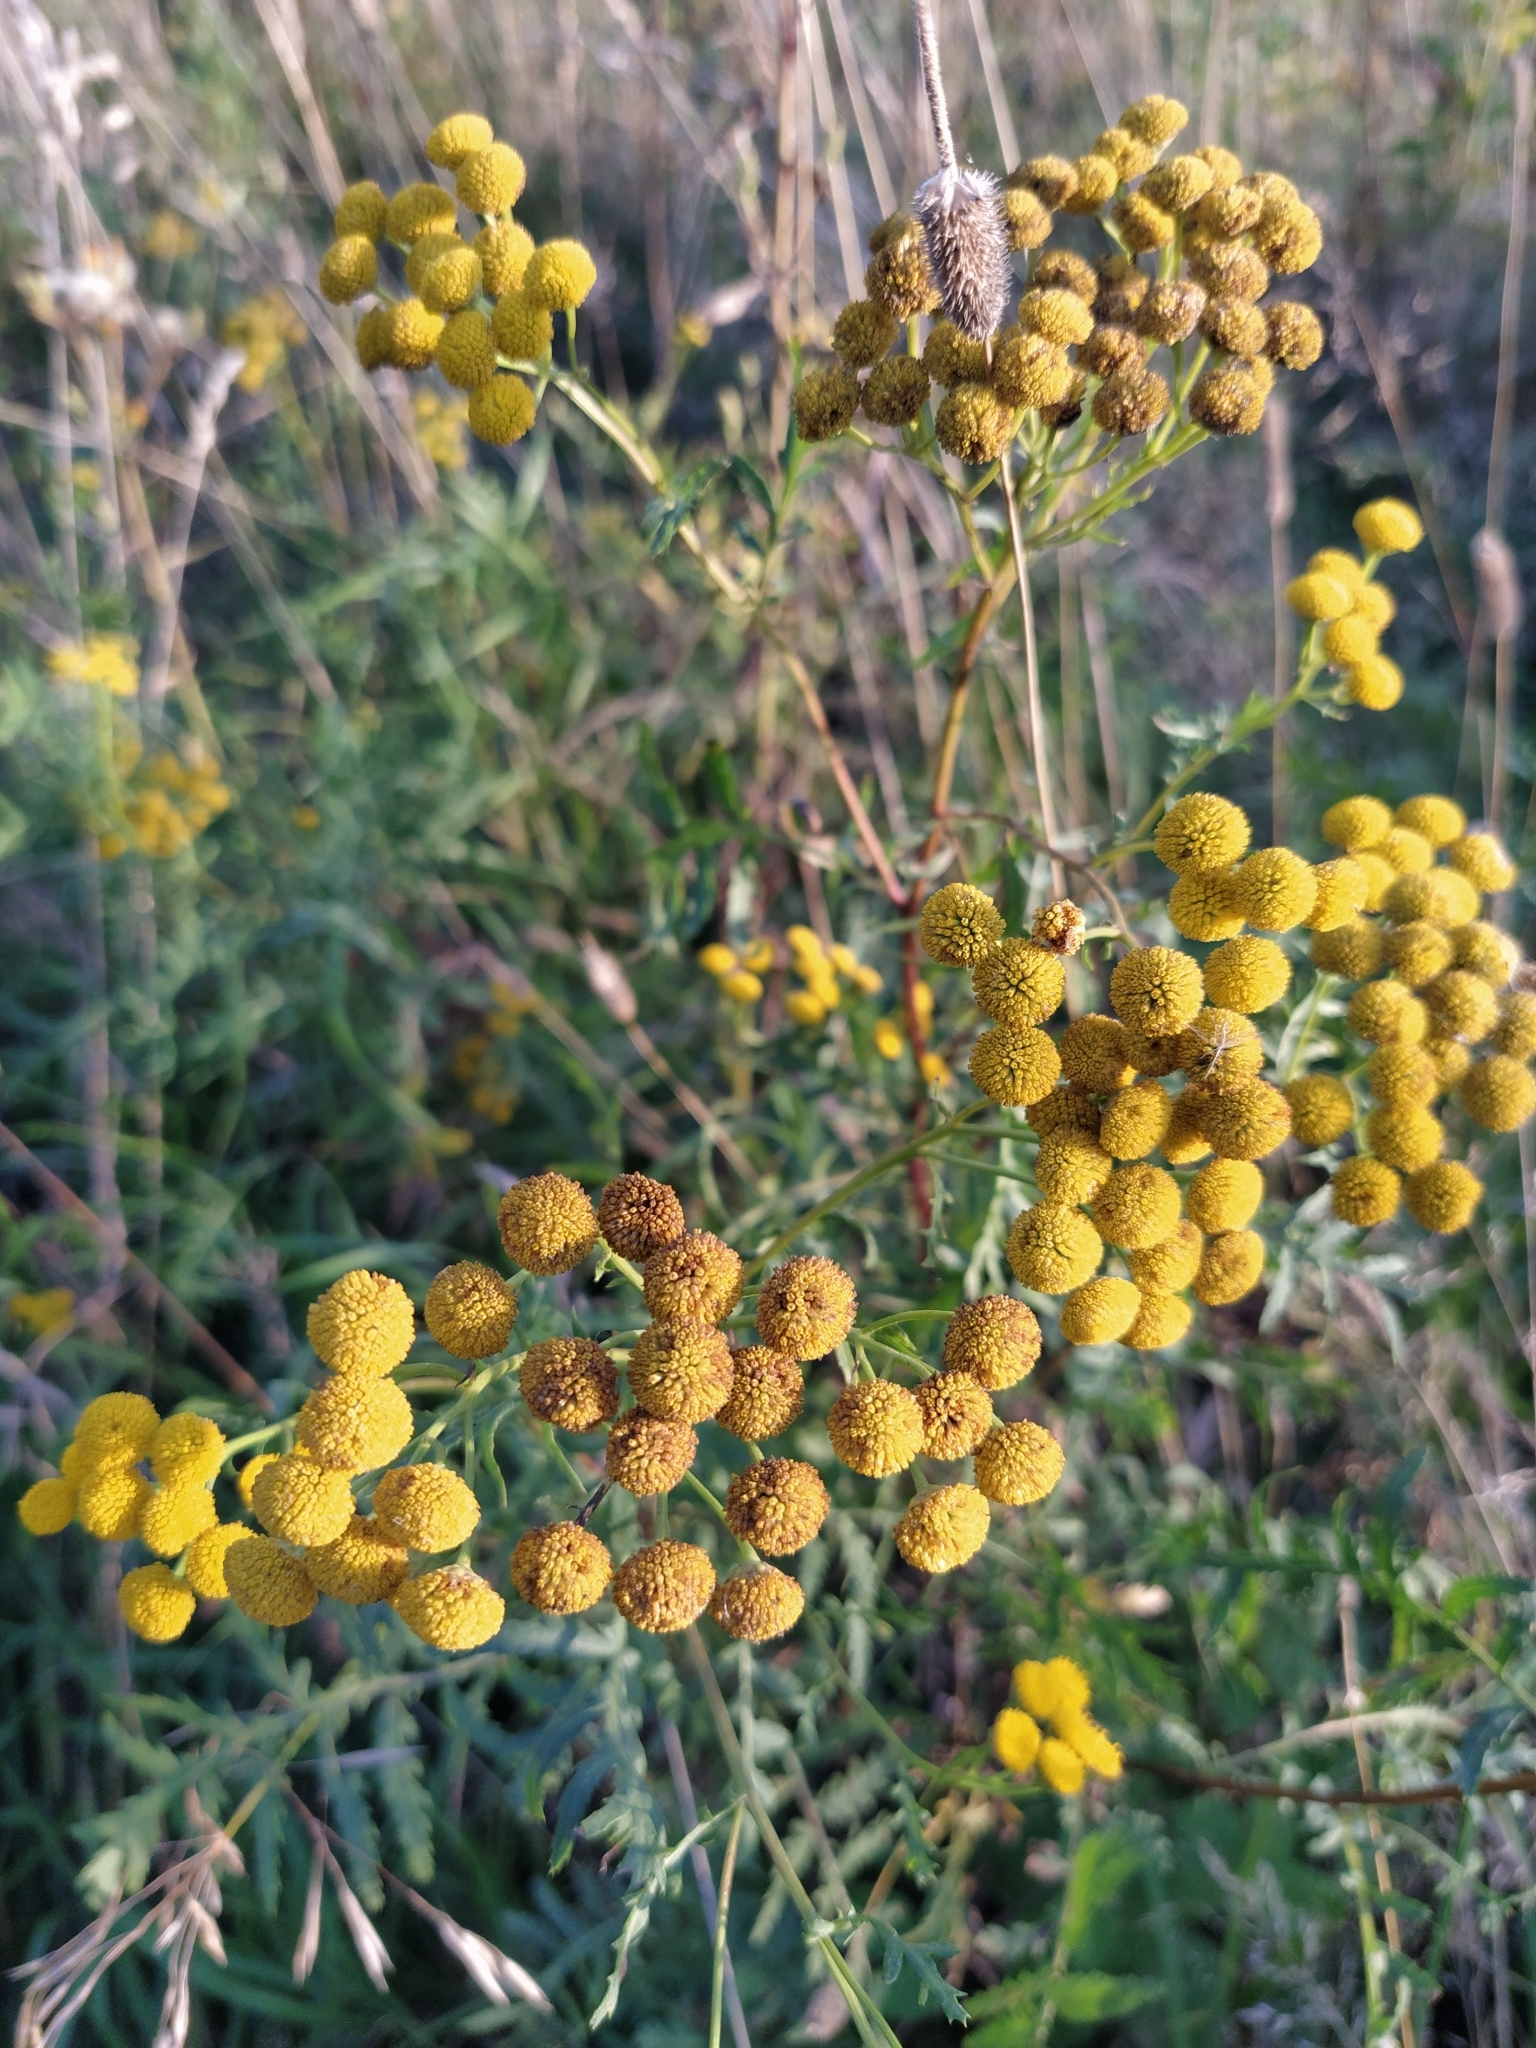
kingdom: Plantae
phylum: Tracheophyta
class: Magnoliopsida
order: Asterales
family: Asteraceae
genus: Tanacetum
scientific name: Tanacetum vulgare
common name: Common tansy
